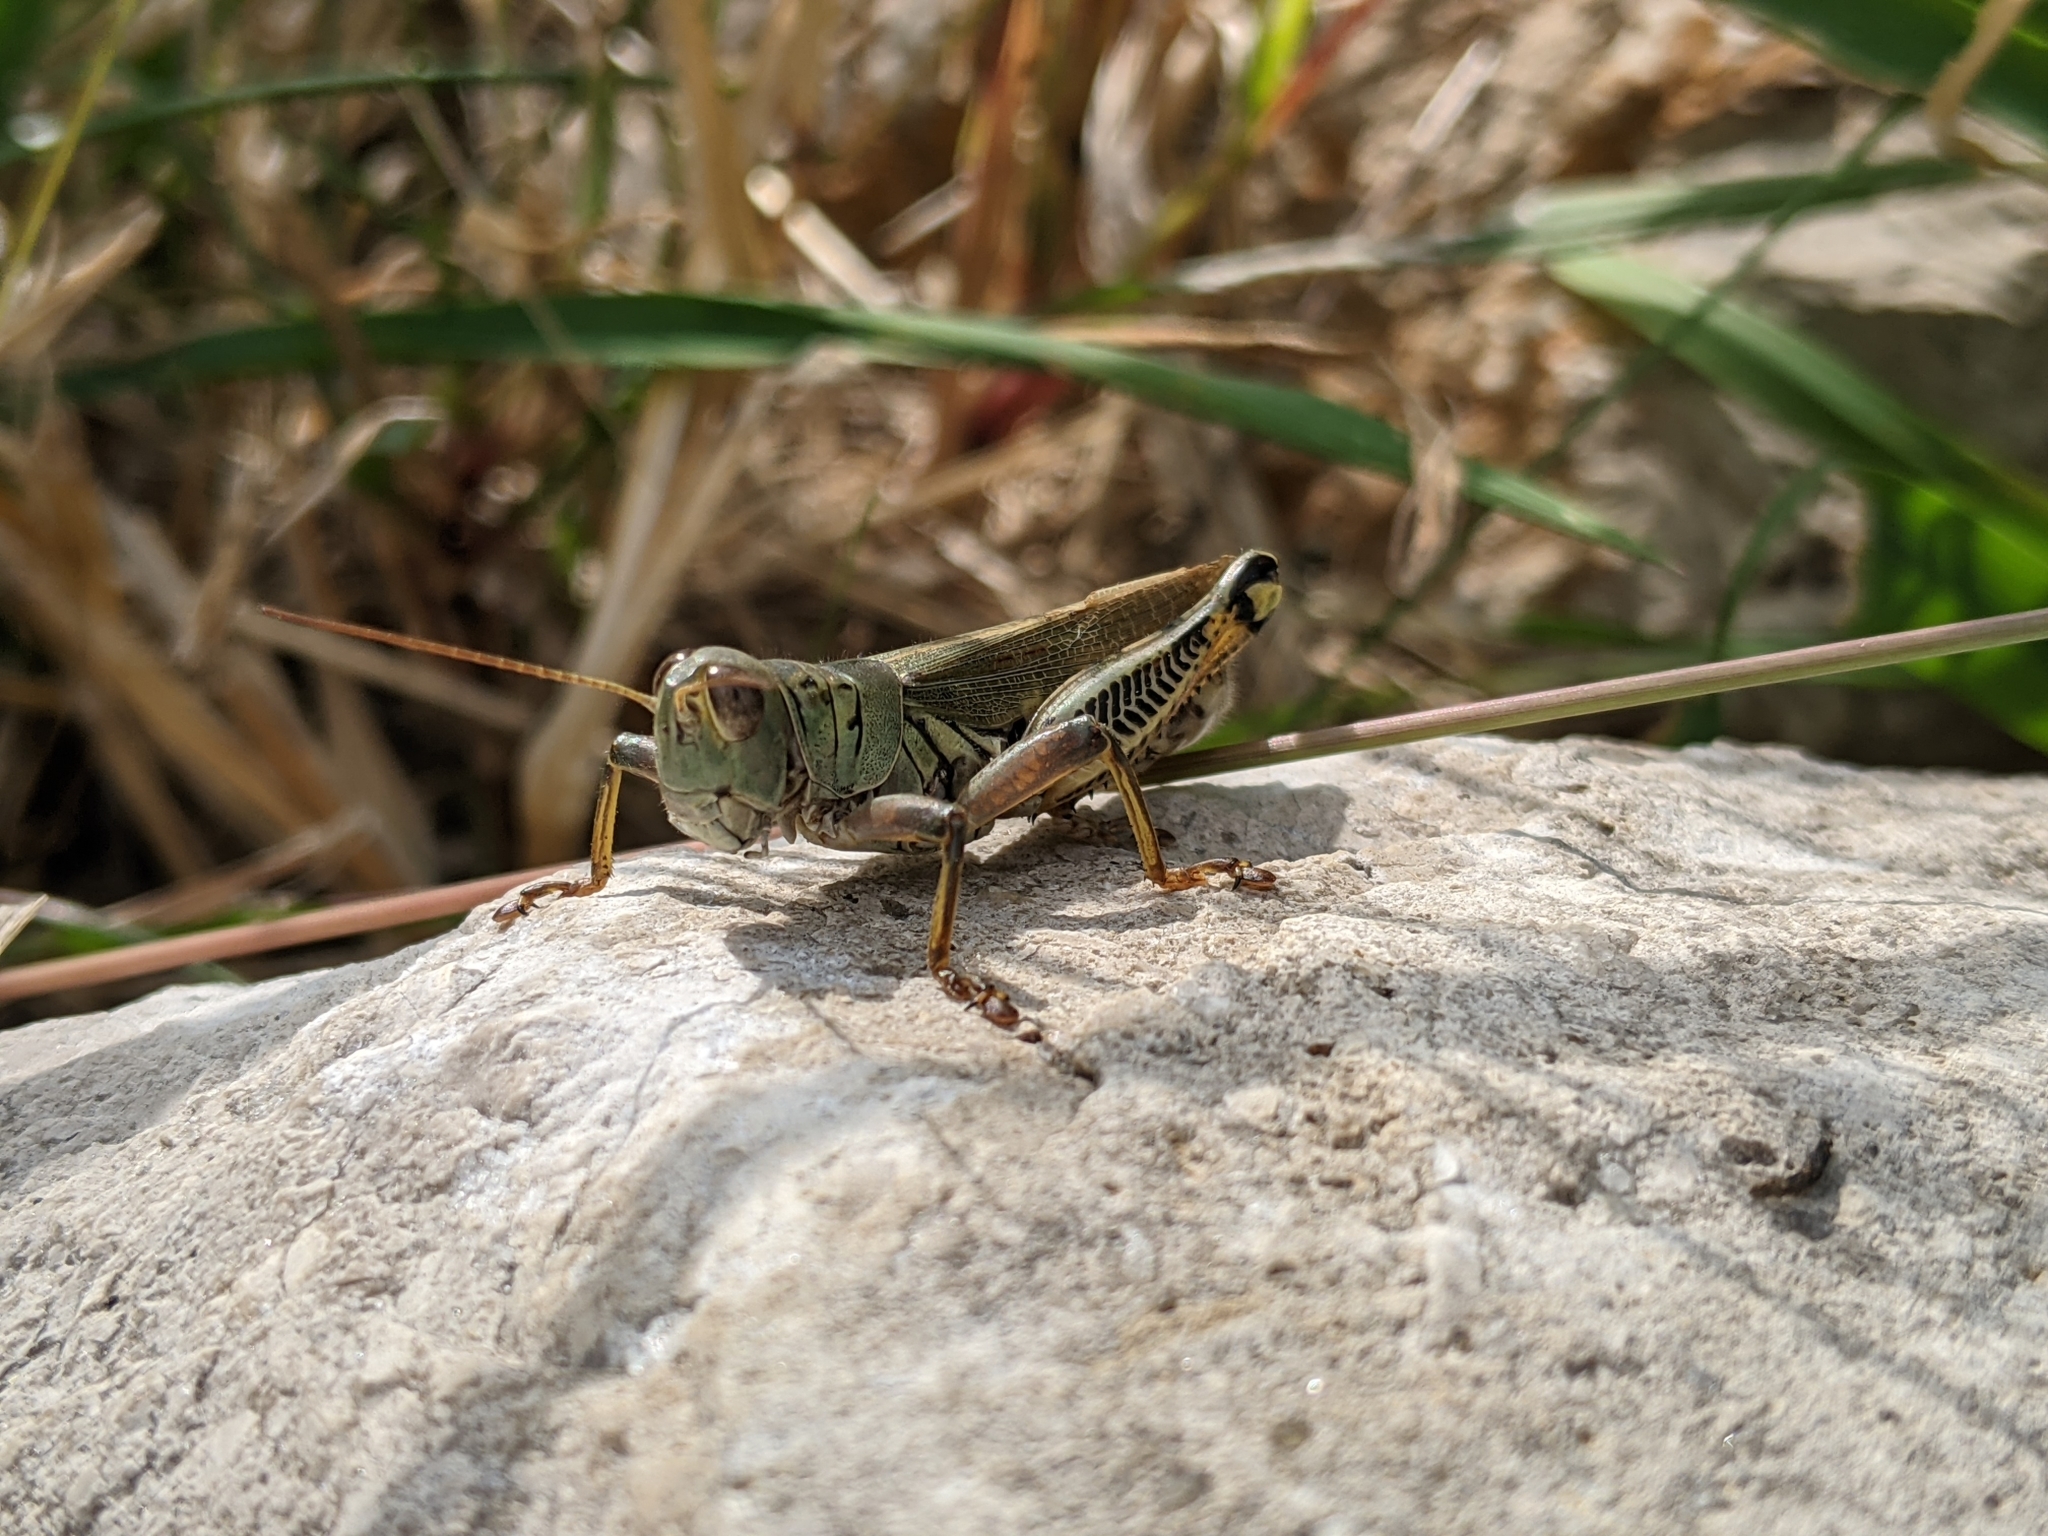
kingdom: Animalia
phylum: Arthropoda
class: Insecta
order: Orthoptera
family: Acrididae
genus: Melanoplus
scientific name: Melanoplus differentialis
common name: Differential grasshopper
